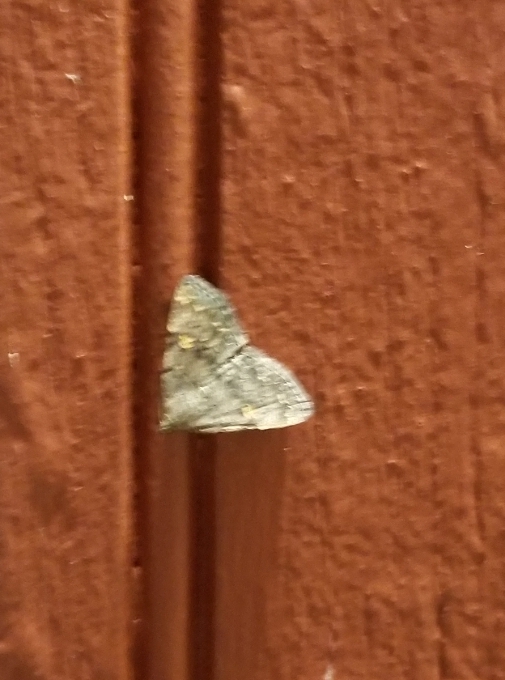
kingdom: Animalia
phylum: Arthropoda
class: Insecta
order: Lepidoptera
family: Erebidae
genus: Idia
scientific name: Idia aemula
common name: Common idia moth
